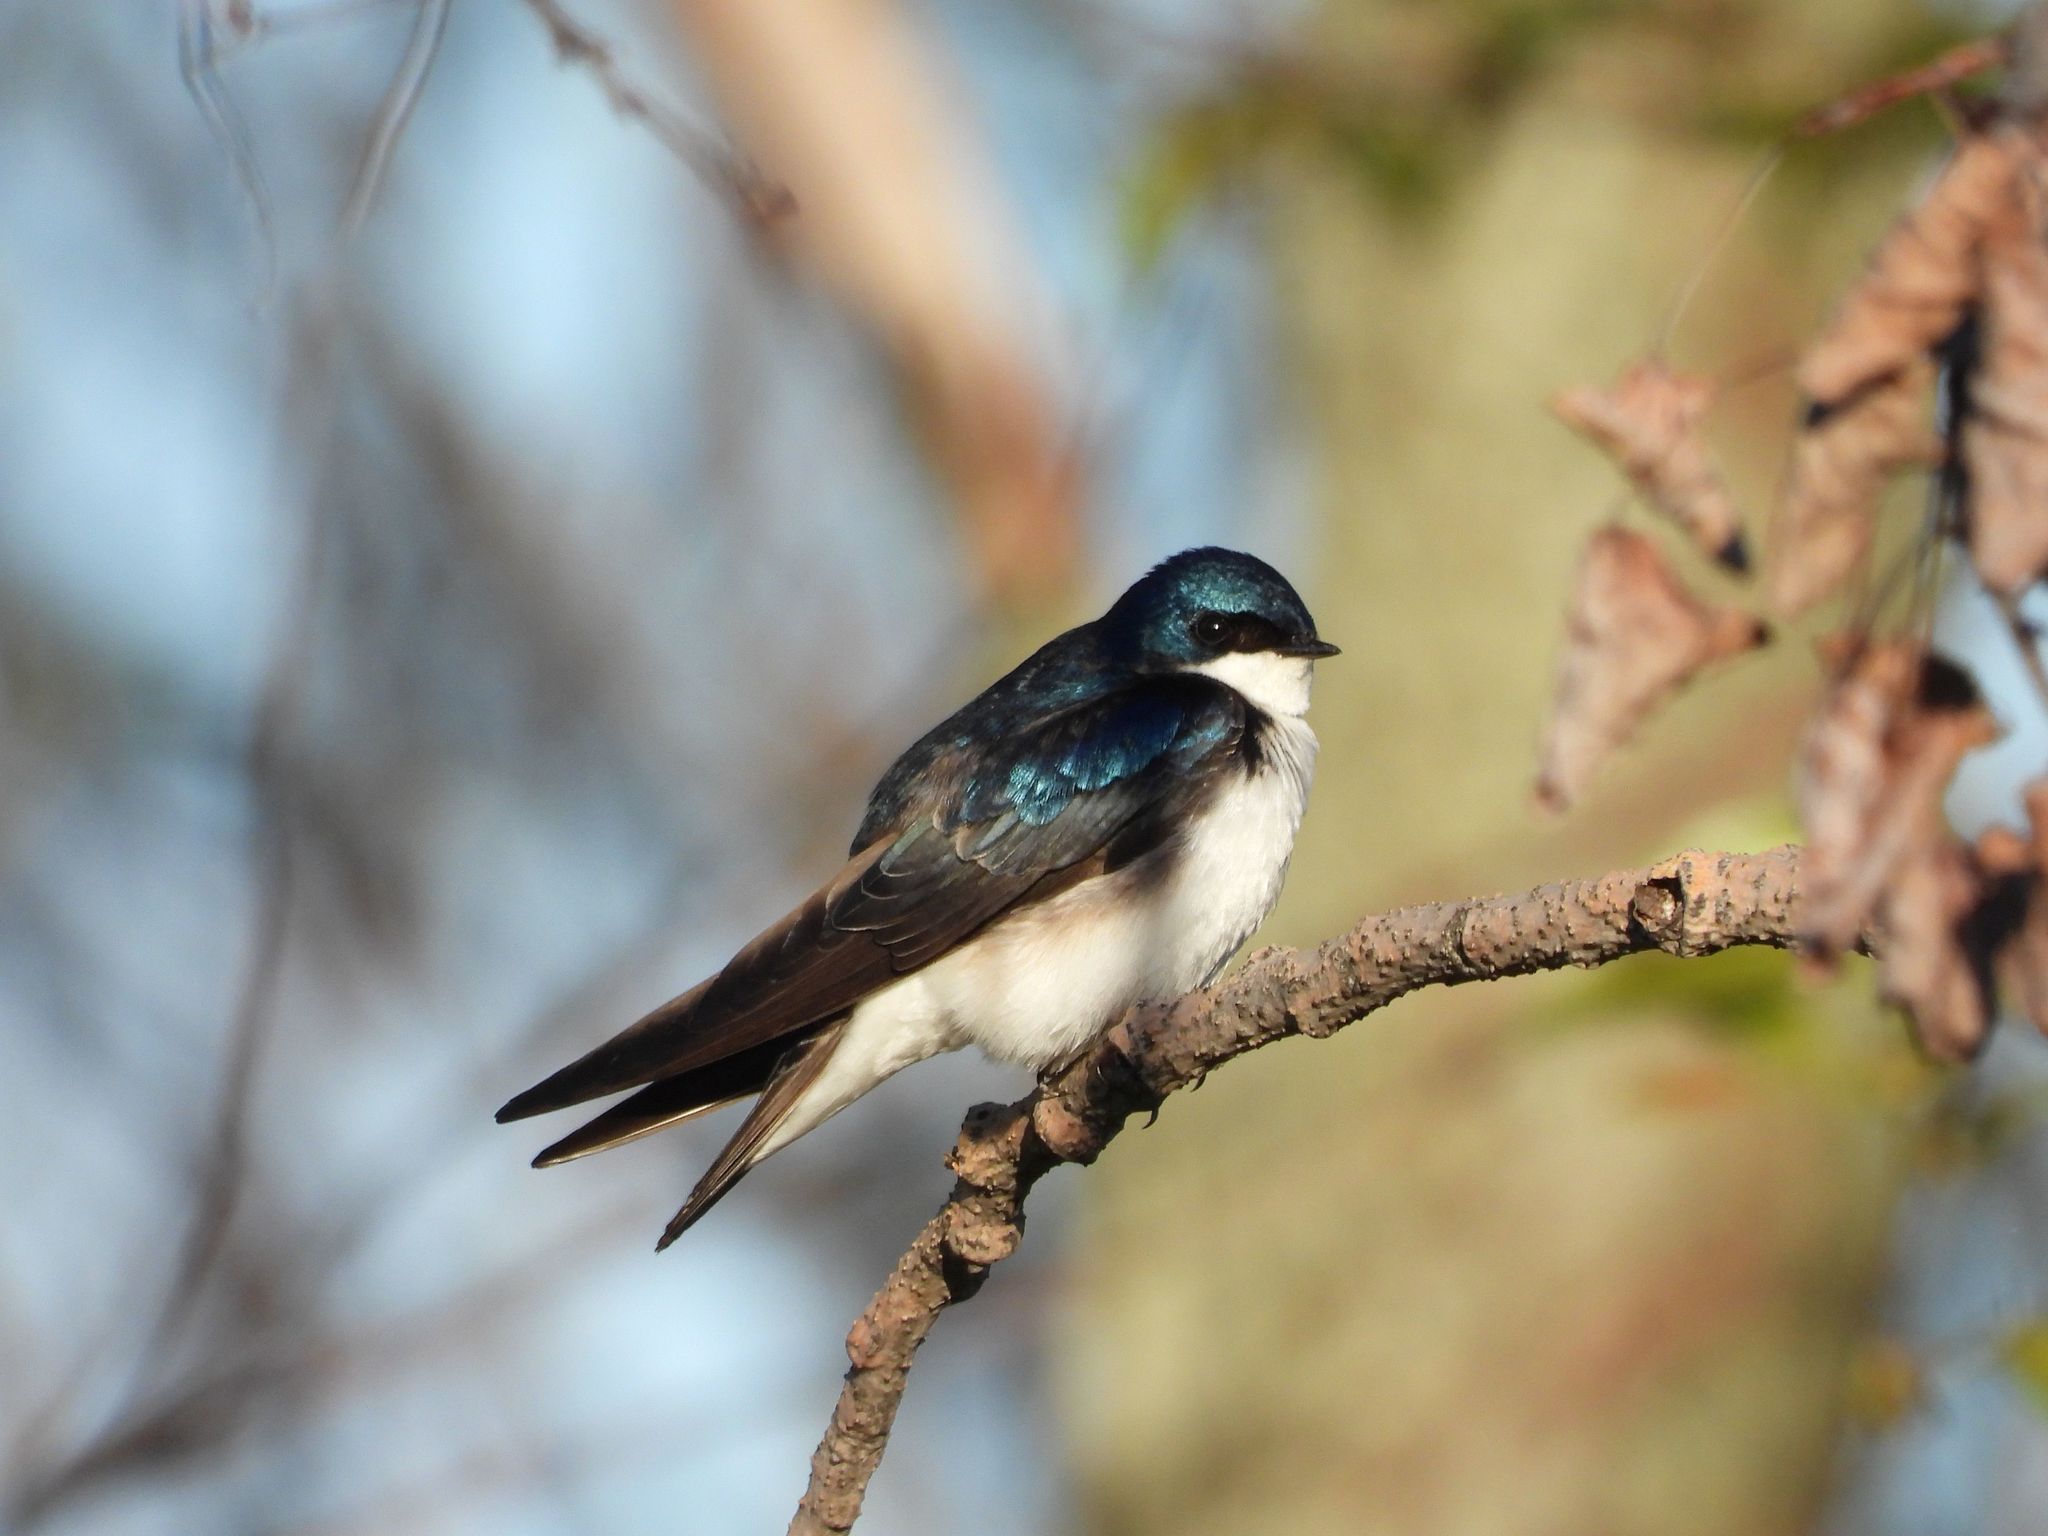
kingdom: Animalia
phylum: Chordata
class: Aves
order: Passeriformes
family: Hirundinidae
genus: Tachycineta
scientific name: Tachycineta bicolor
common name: Tree swallow
